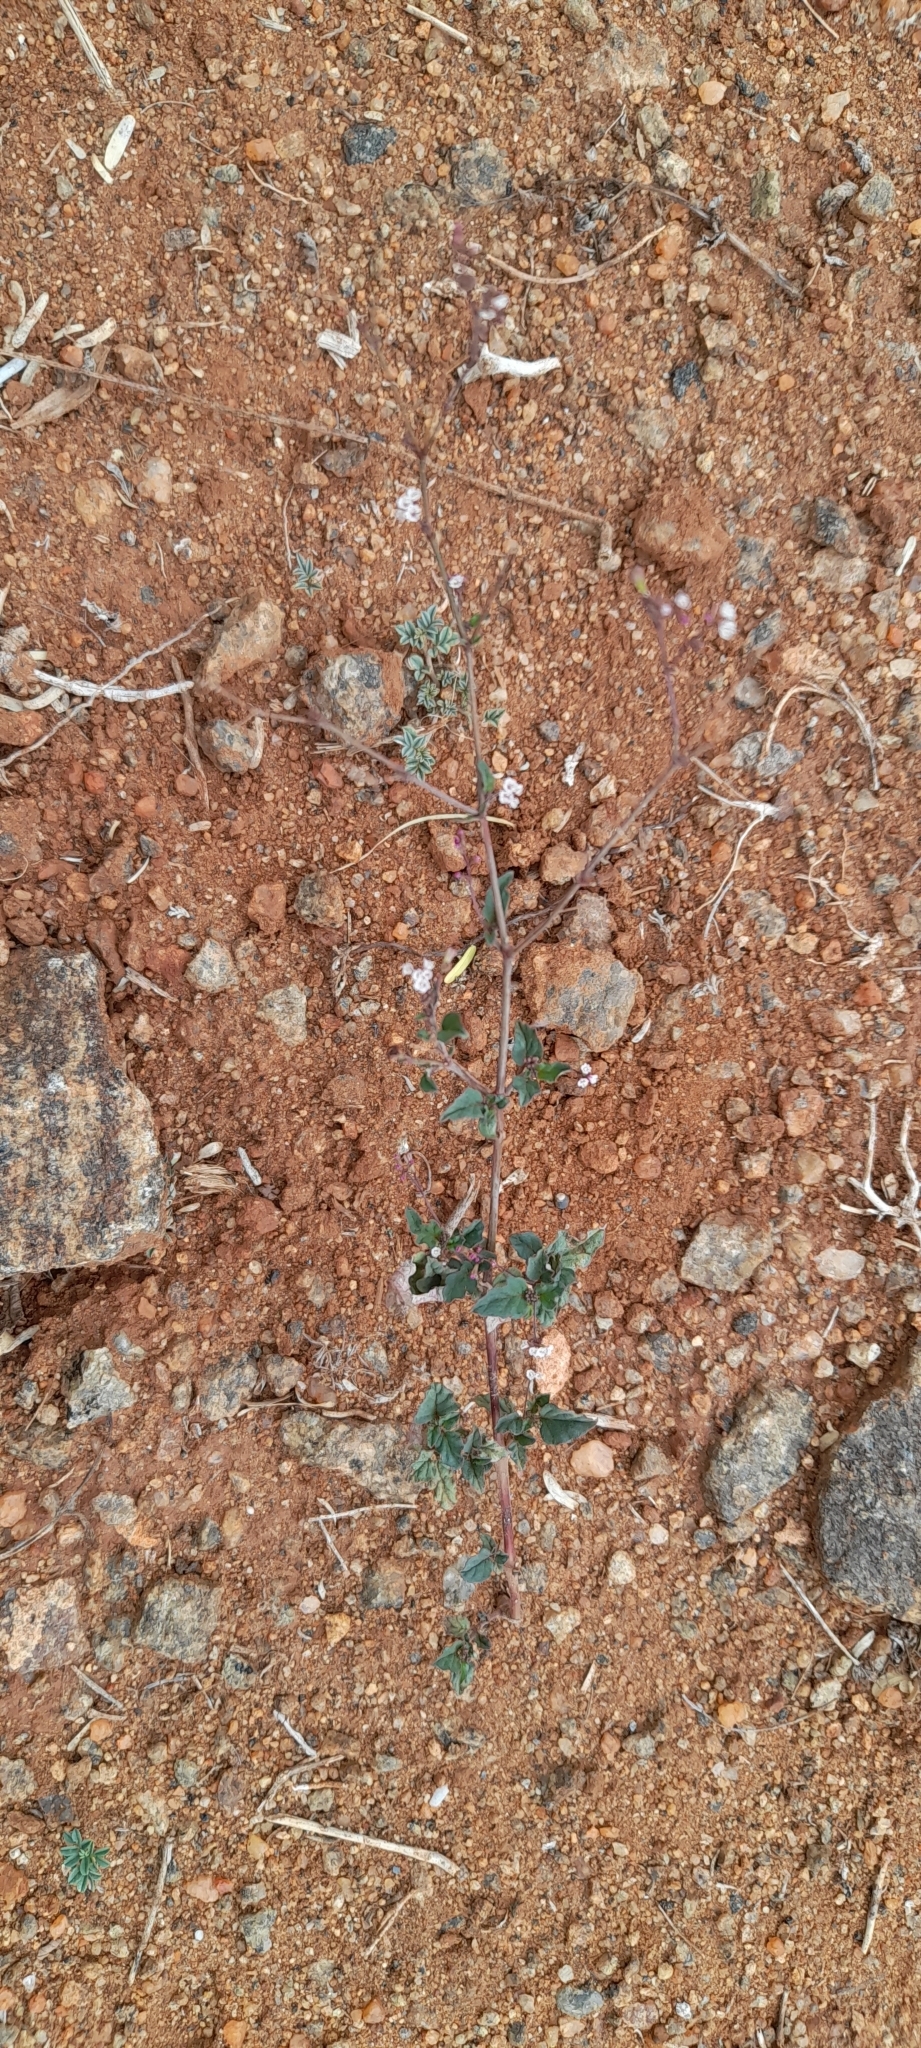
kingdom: Plantae
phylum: Tracheophyta
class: Magnoliopsida
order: Caryophyllales
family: Nyctaginaceae
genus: Boerhavia
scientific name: Boerhavia erecta
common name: Erect spiderling
